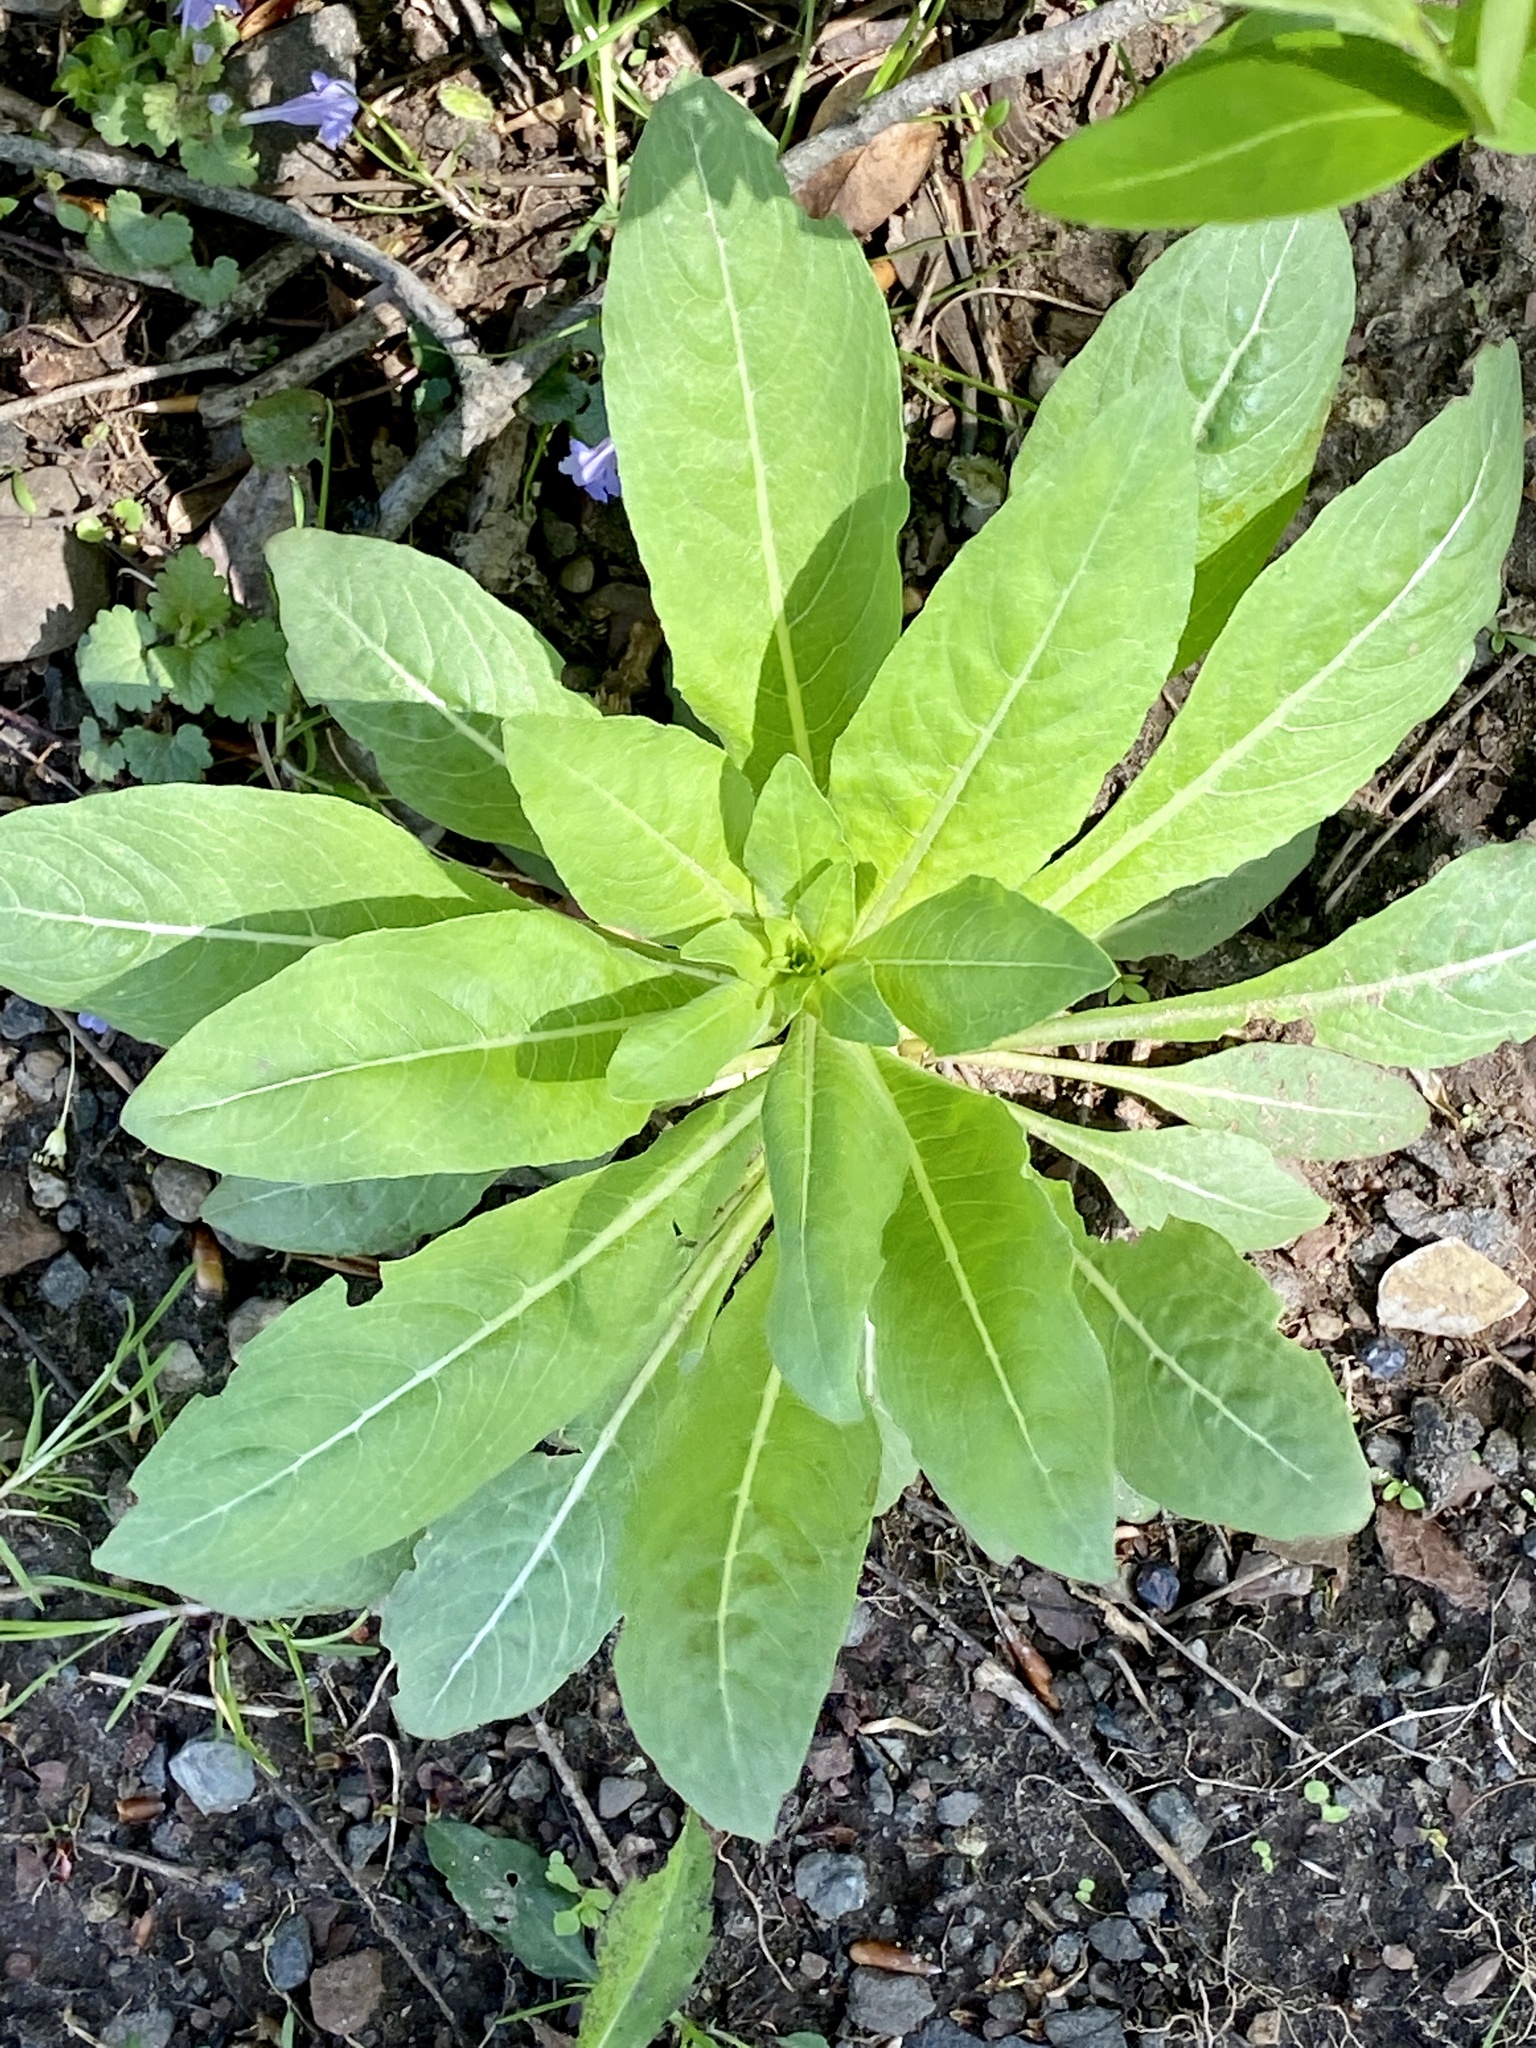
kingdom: Plantae
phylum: Tracheophyta
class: Magnoliopsida
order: Myrtales
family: Onagraceae
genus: Oenothera
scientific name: Oenothera biennis
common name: Common evening-primrose
